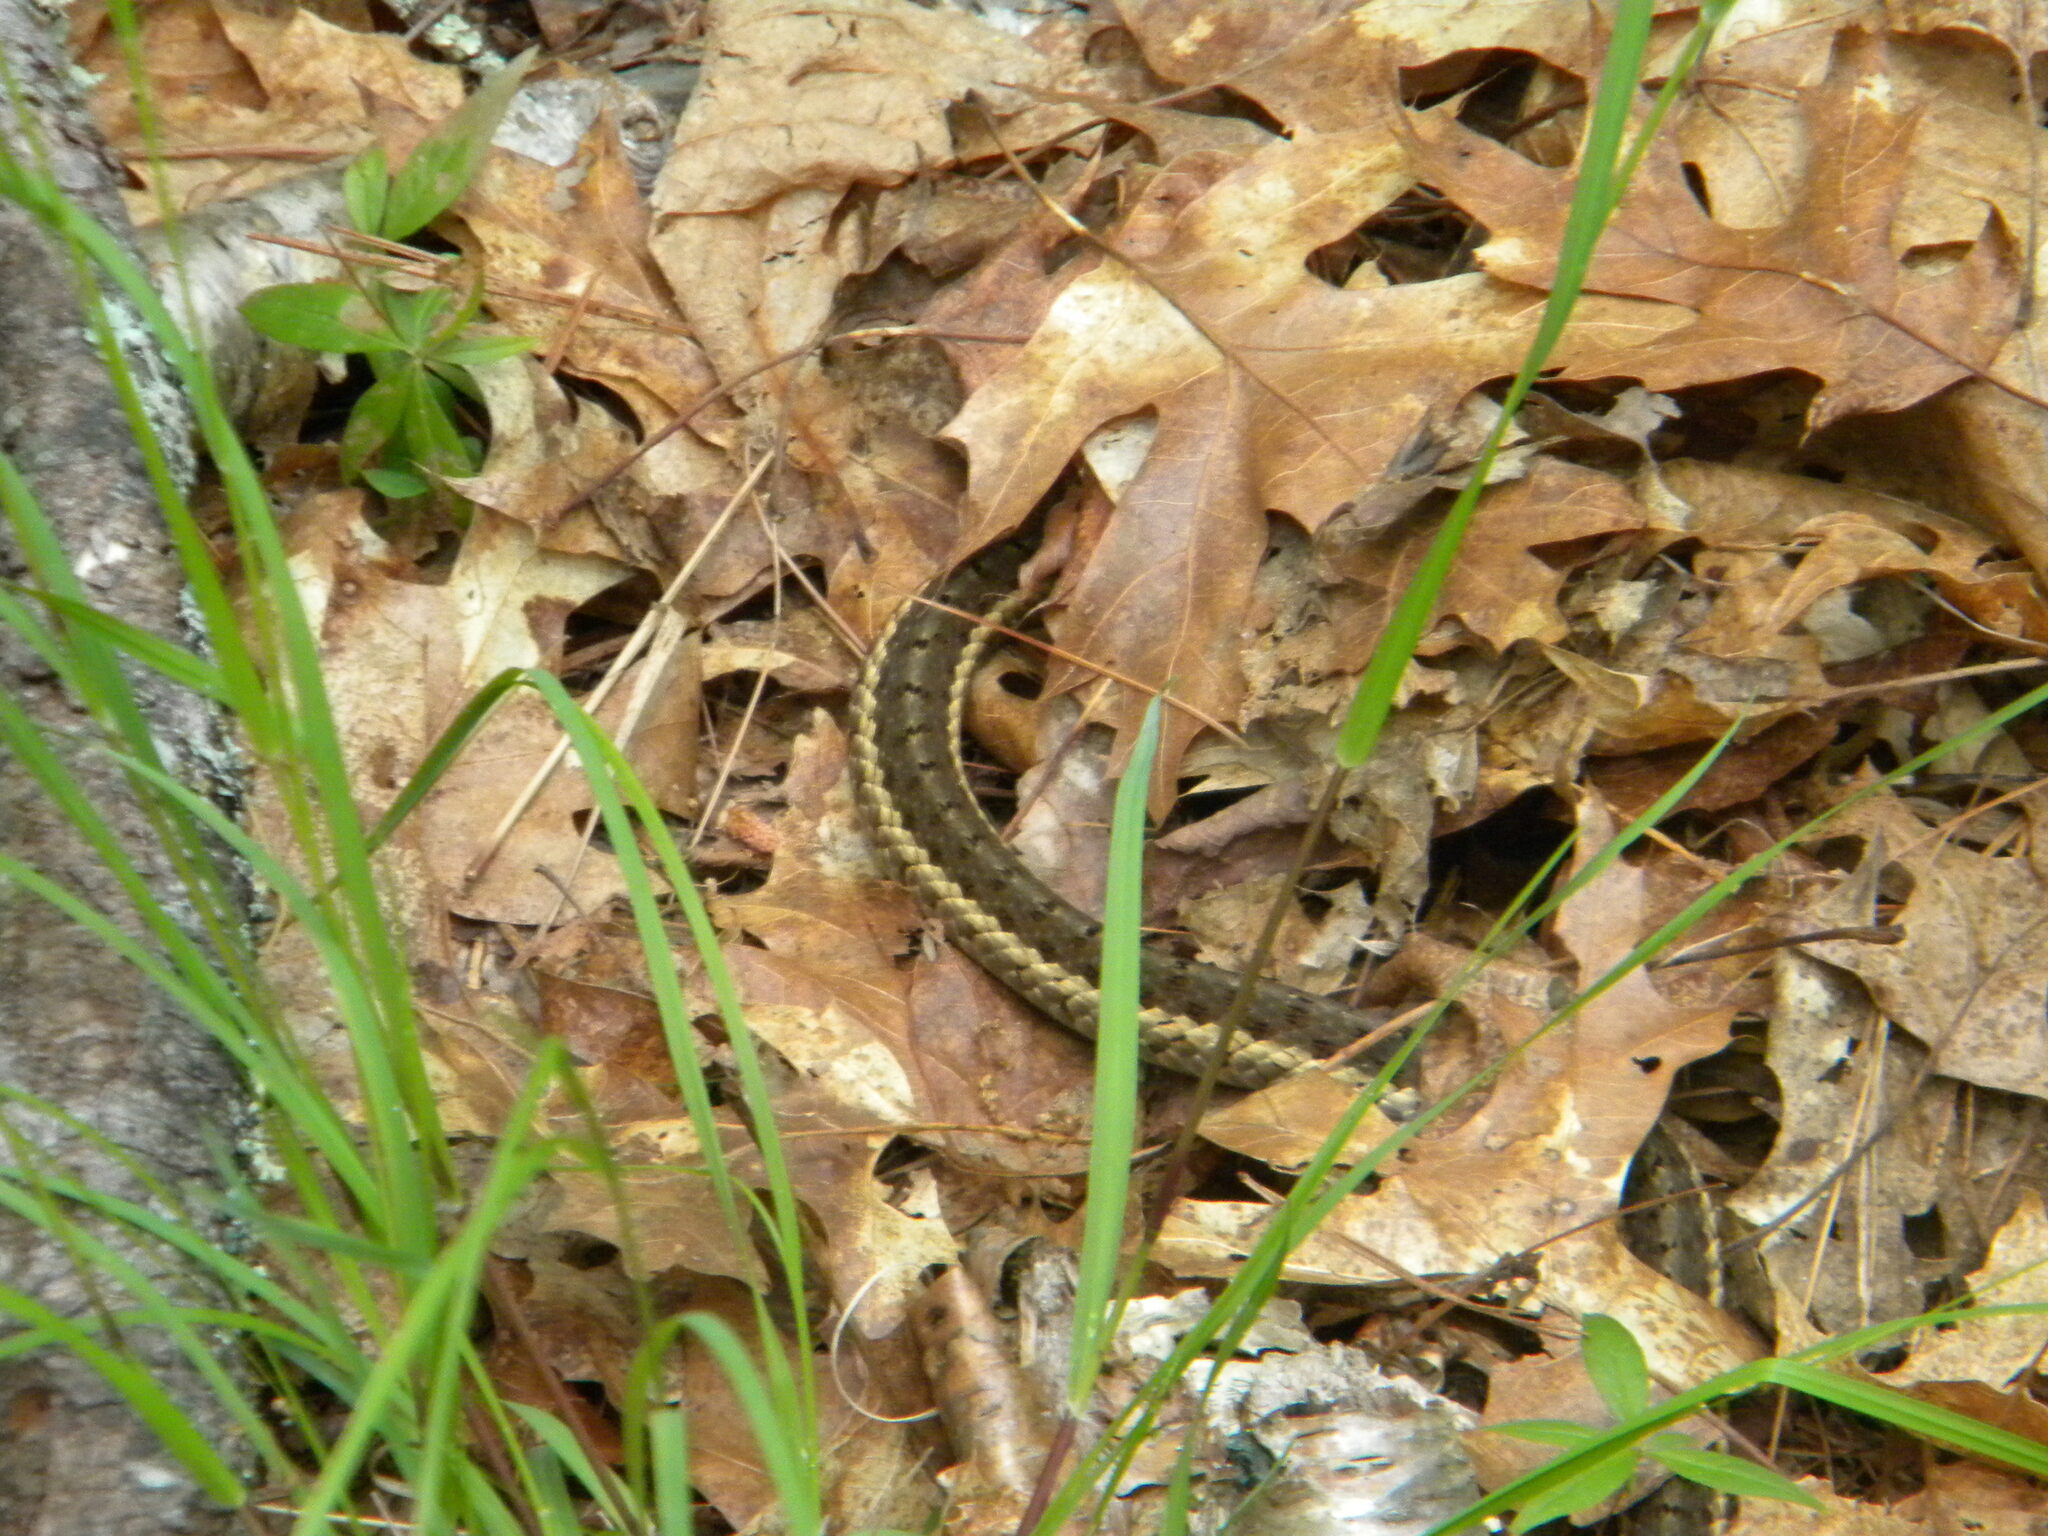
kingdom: Animalia
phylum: Chordata
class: Squamata
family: Colubridae
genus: Thamnophis
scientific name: Thamnophis sirtalis
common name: Common garter snake
